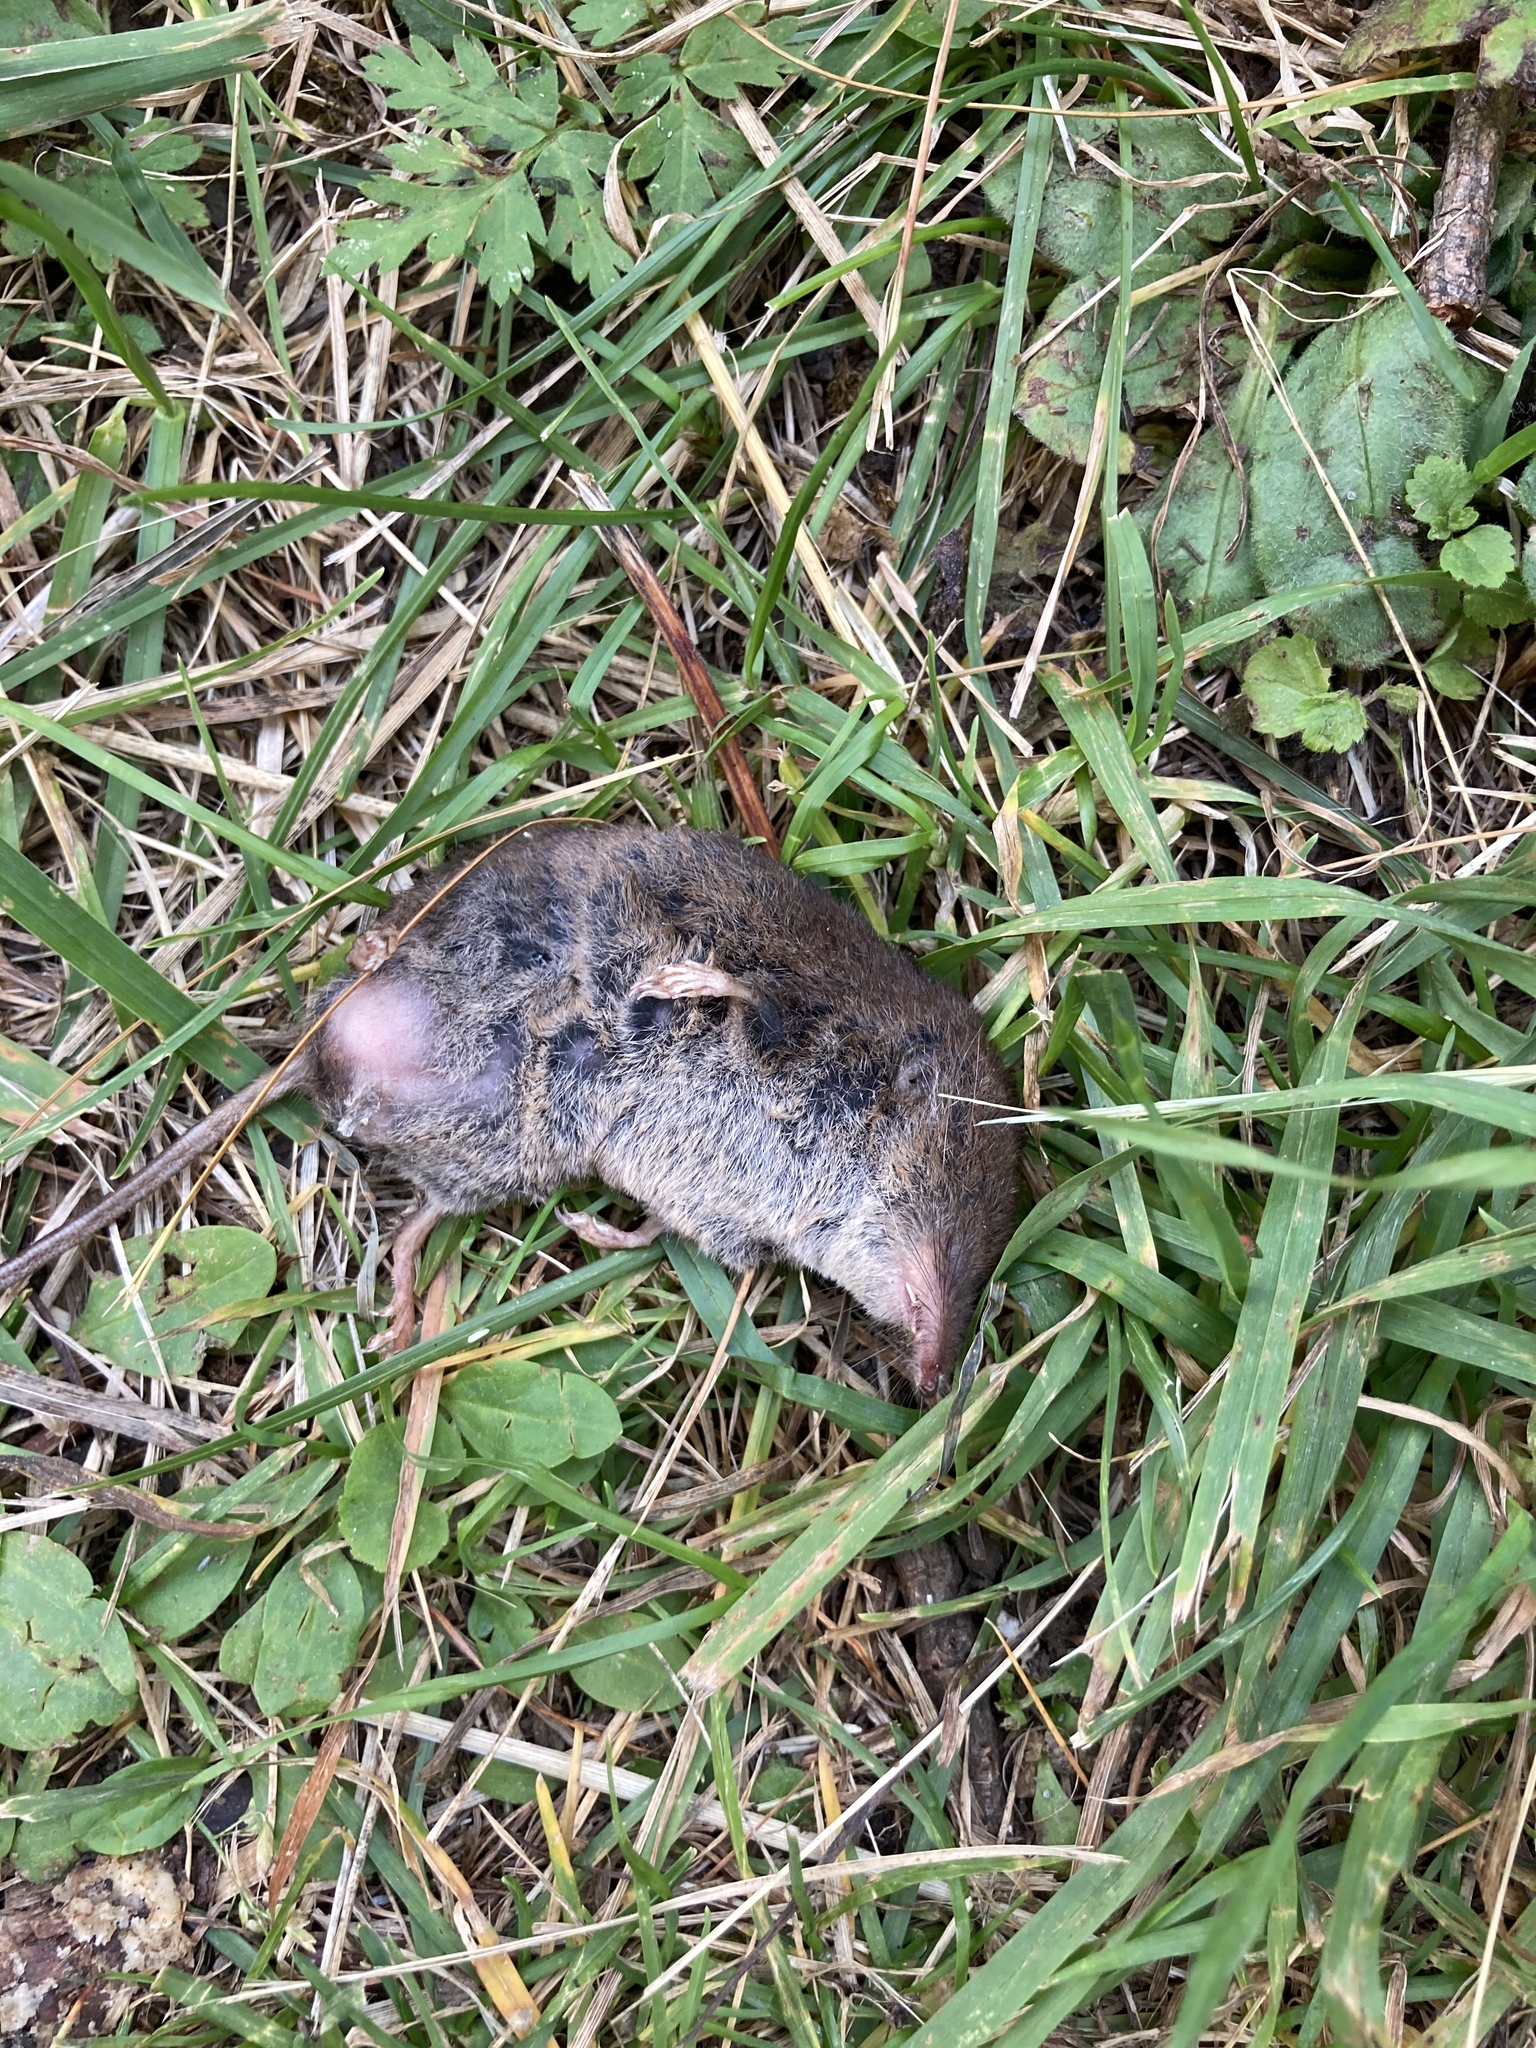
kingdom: Animalia
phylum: Chordata
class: Mammalia
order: Soricomorpha
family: Soricidae
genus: Sorex
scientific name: Sorex antinorii
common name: Valais shrew
